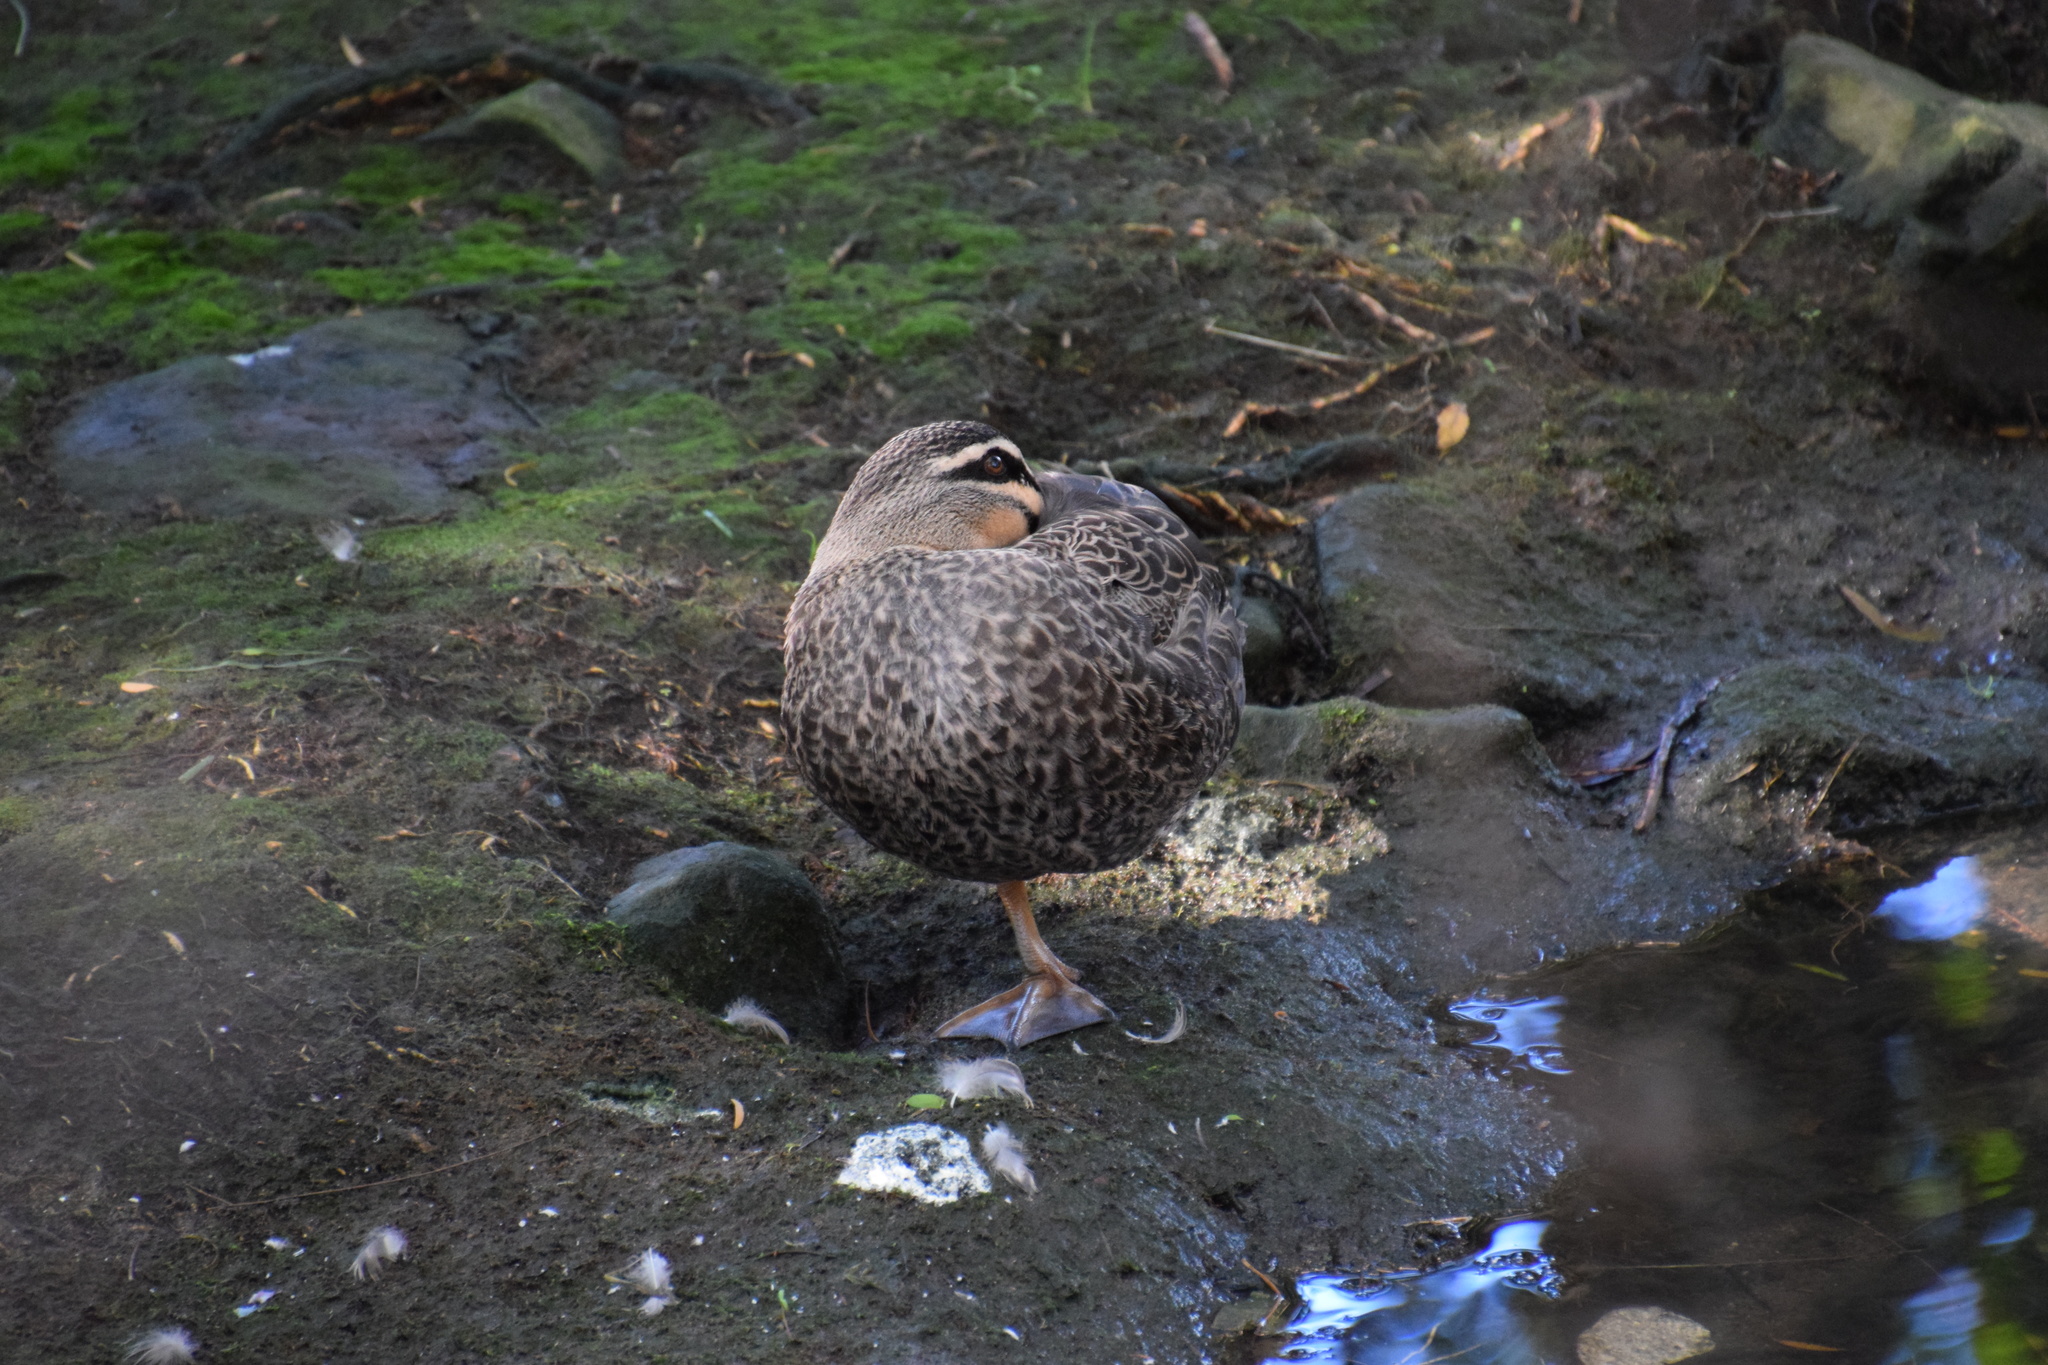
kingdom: Animalia
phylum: Chordata
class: Aves
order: Anseriformes
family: Anatidae
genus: Anas
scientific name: Anas
